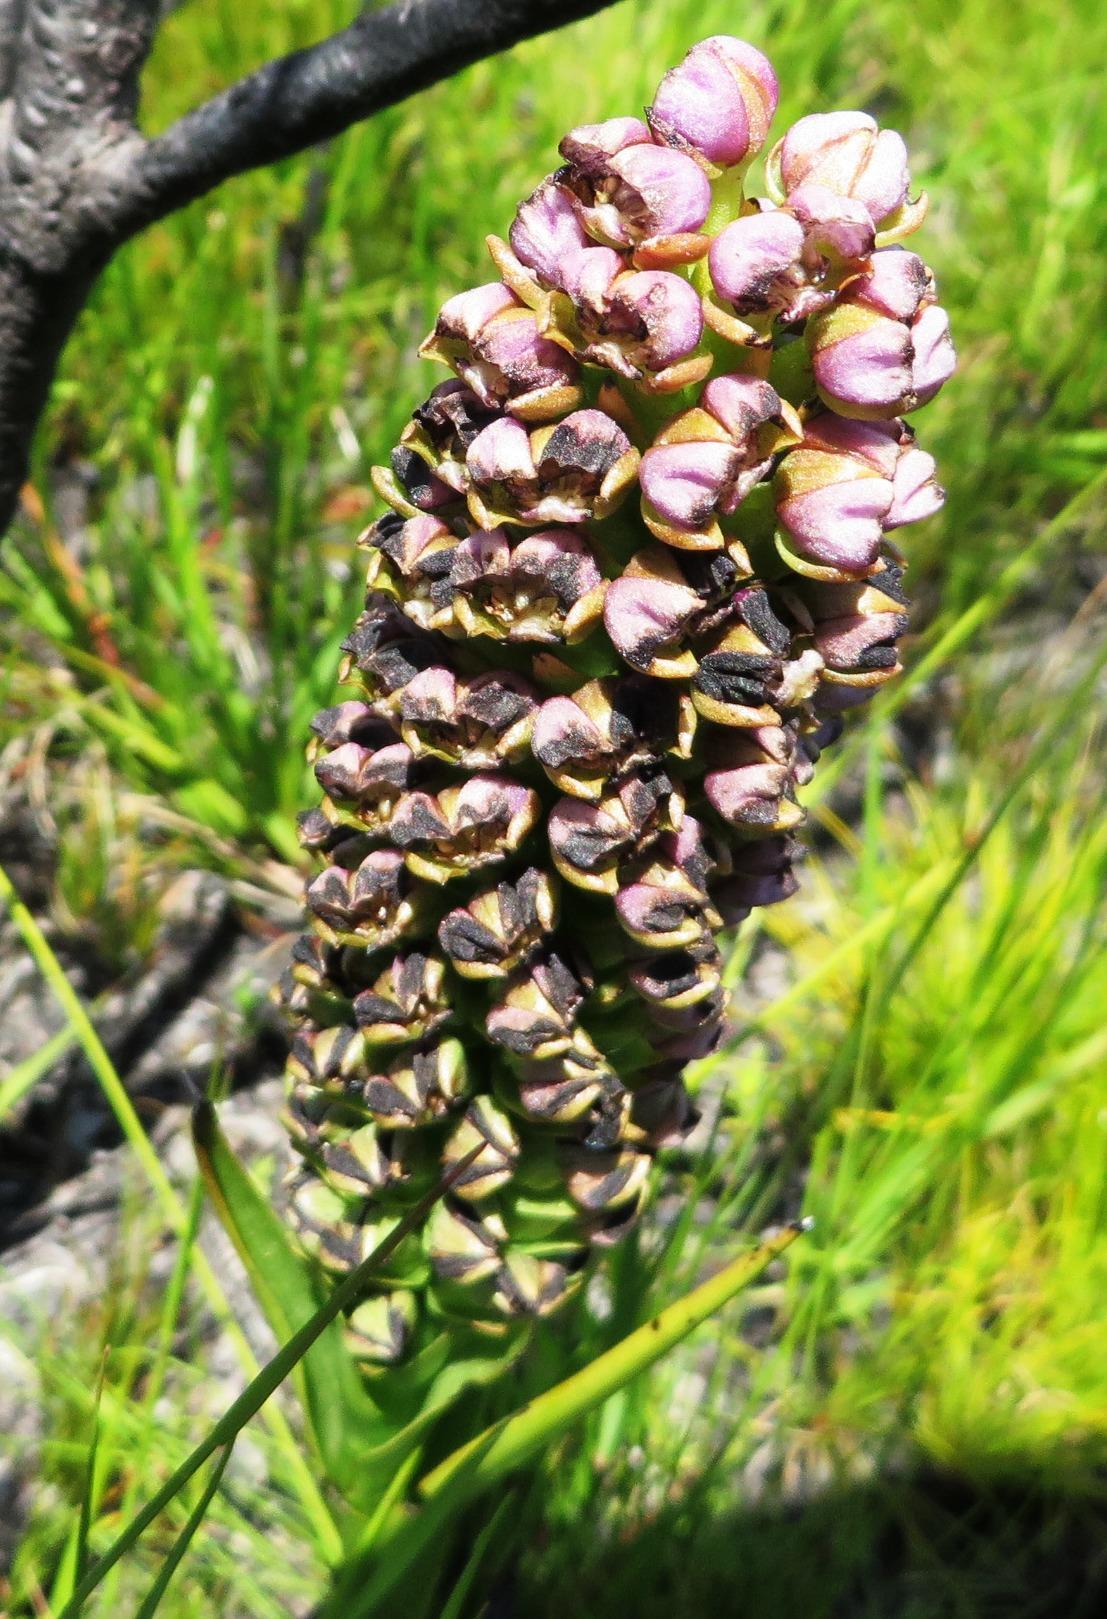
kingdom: Plantae
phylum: Tracheophyta
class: Liliopsida
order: Asparagales
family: Orchidaceae
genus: Evotella
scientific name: Evotella carnosa
